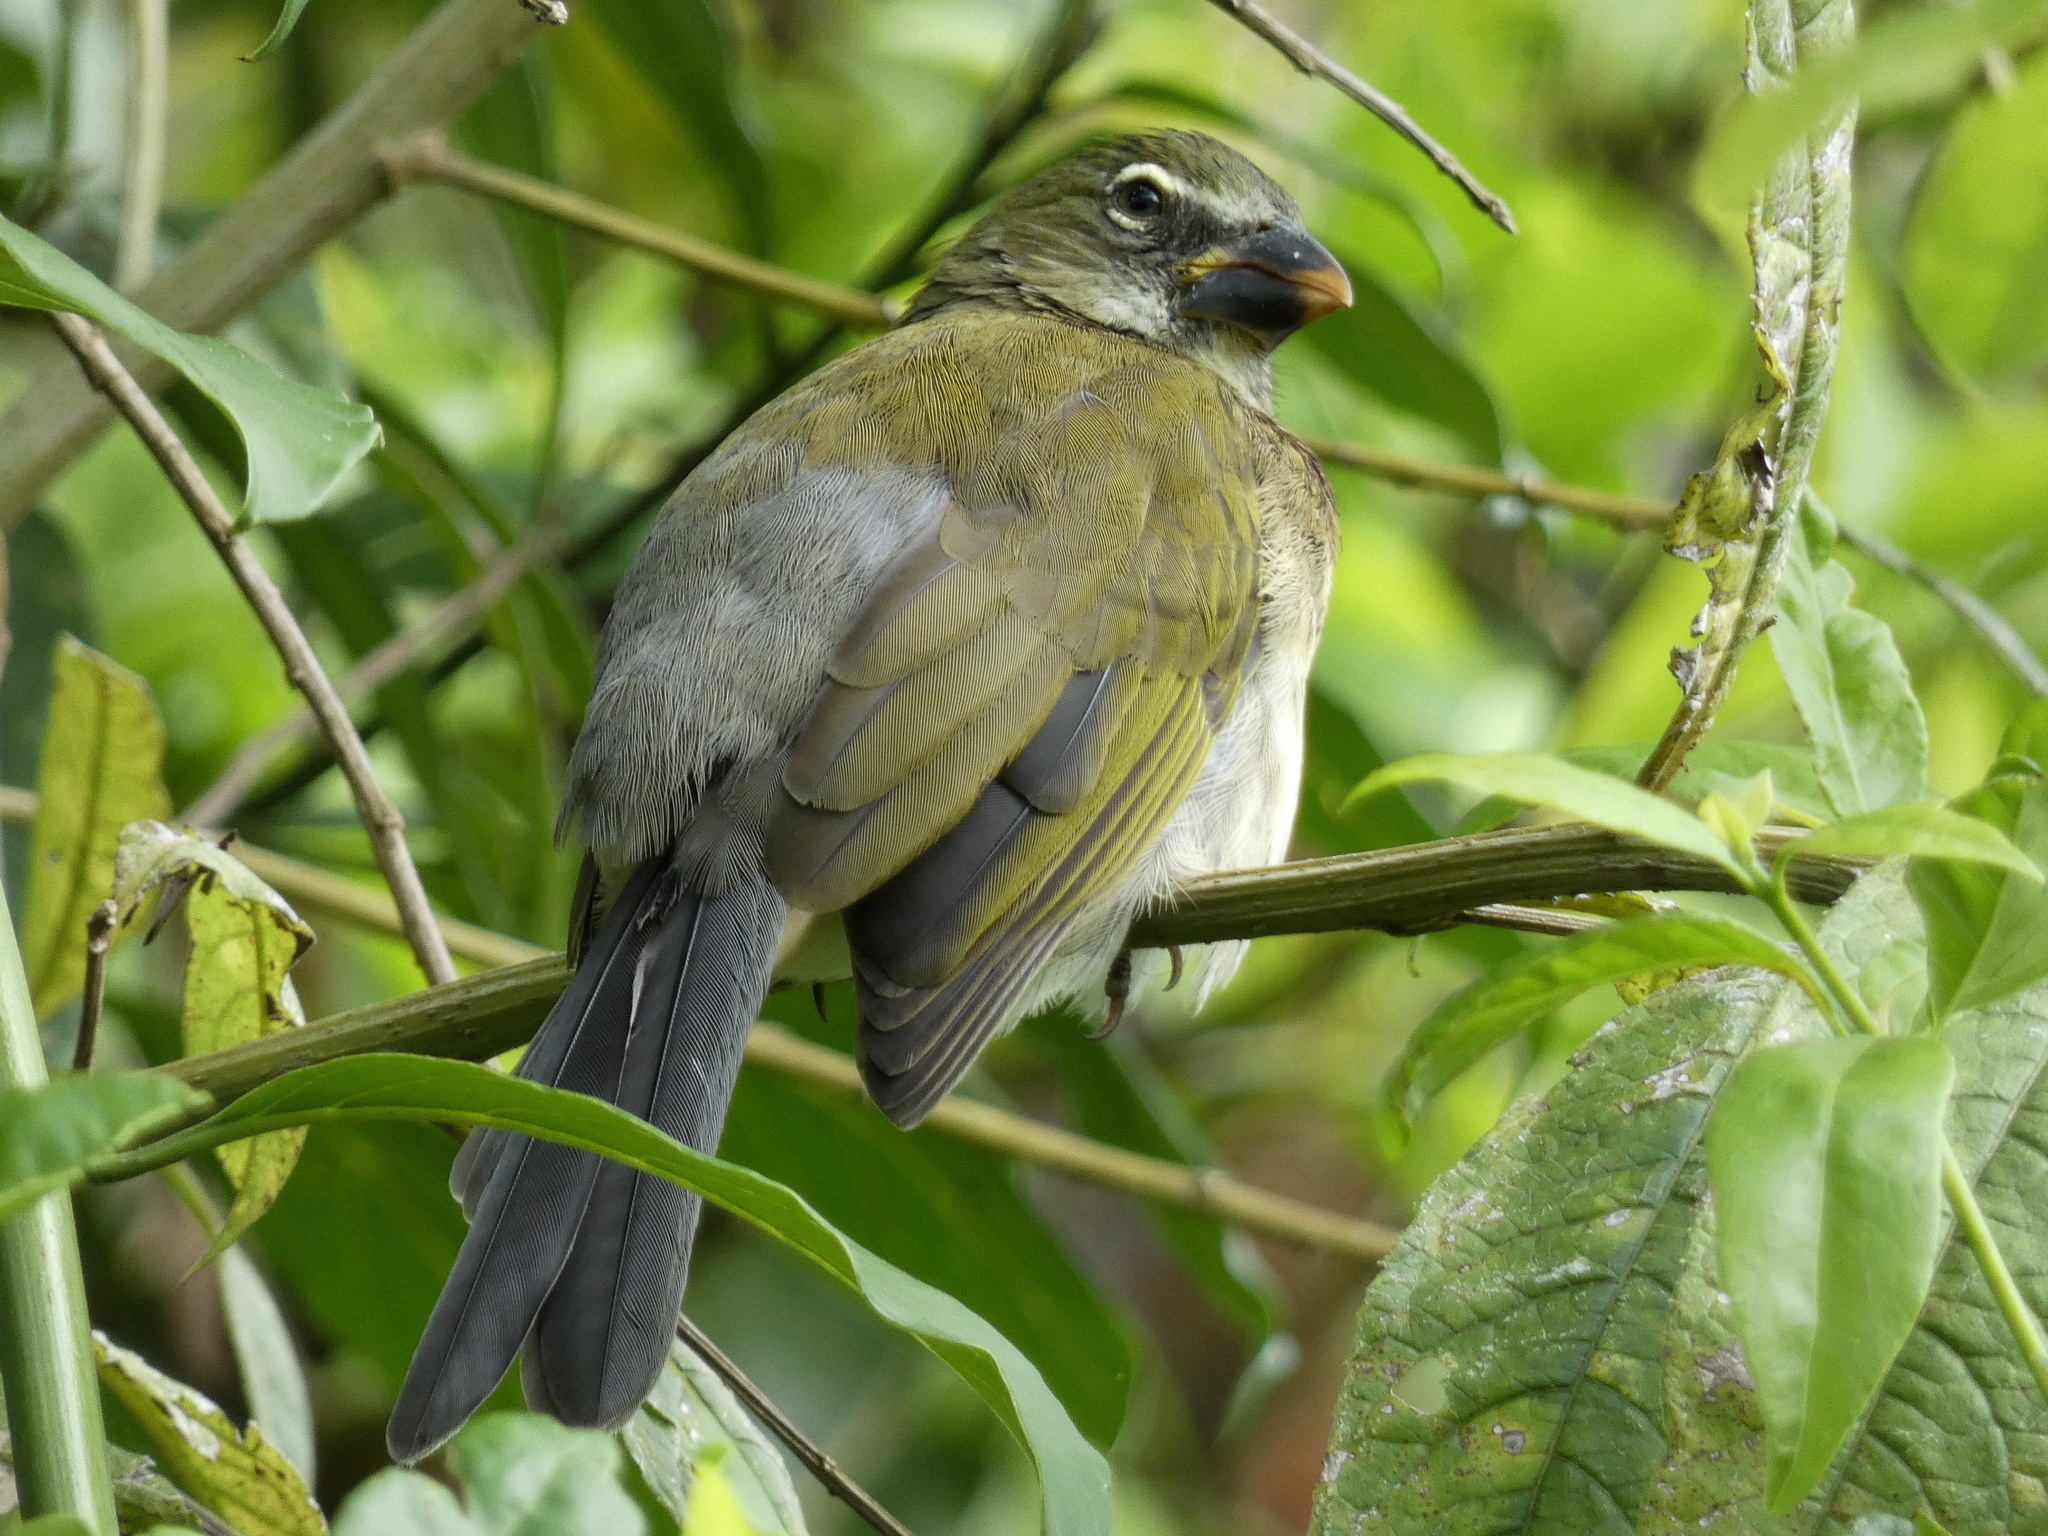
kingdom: Animalia
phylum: Chordata
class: Aves
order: Passeriformes
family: Thraupidae
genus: Saltator
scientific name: Saltator striatipectus
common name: Streaked saltator
